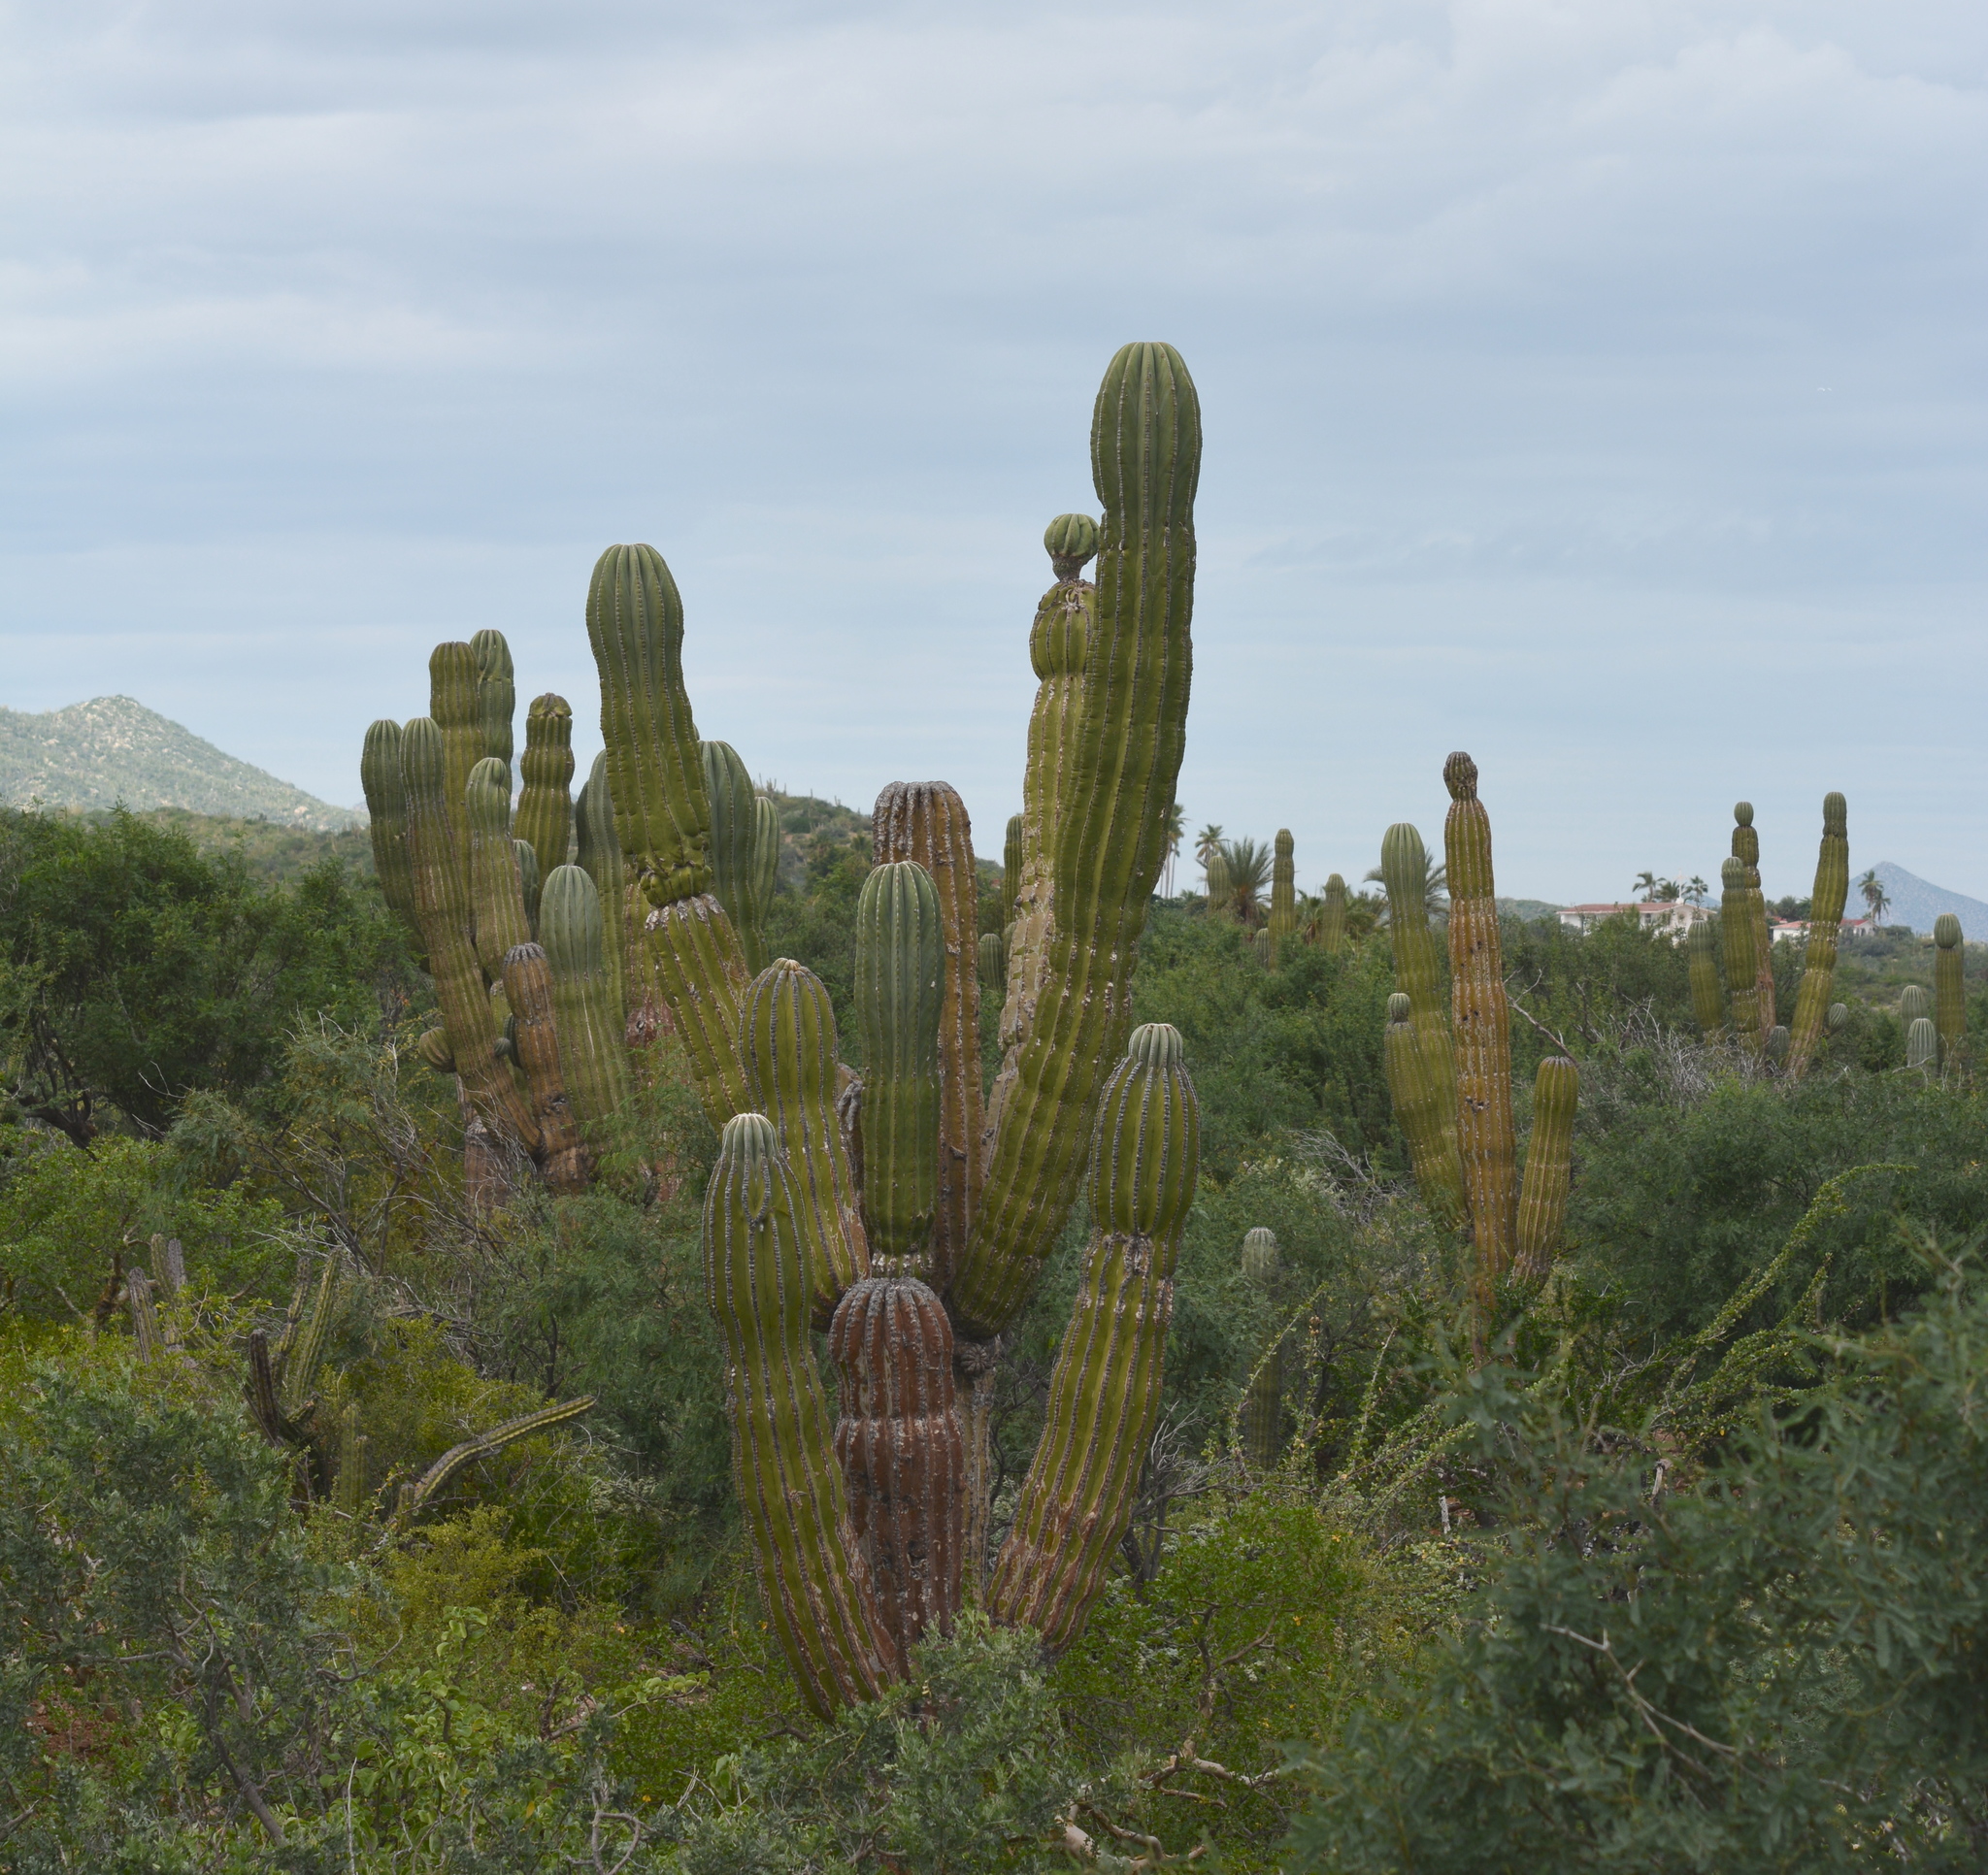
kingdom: Plantae
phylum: Tracheophyta
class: Magnoliopsida
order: Caryophyllales
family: Cactaceae
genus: Pachycereus
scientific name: Pachycereus pringlei
